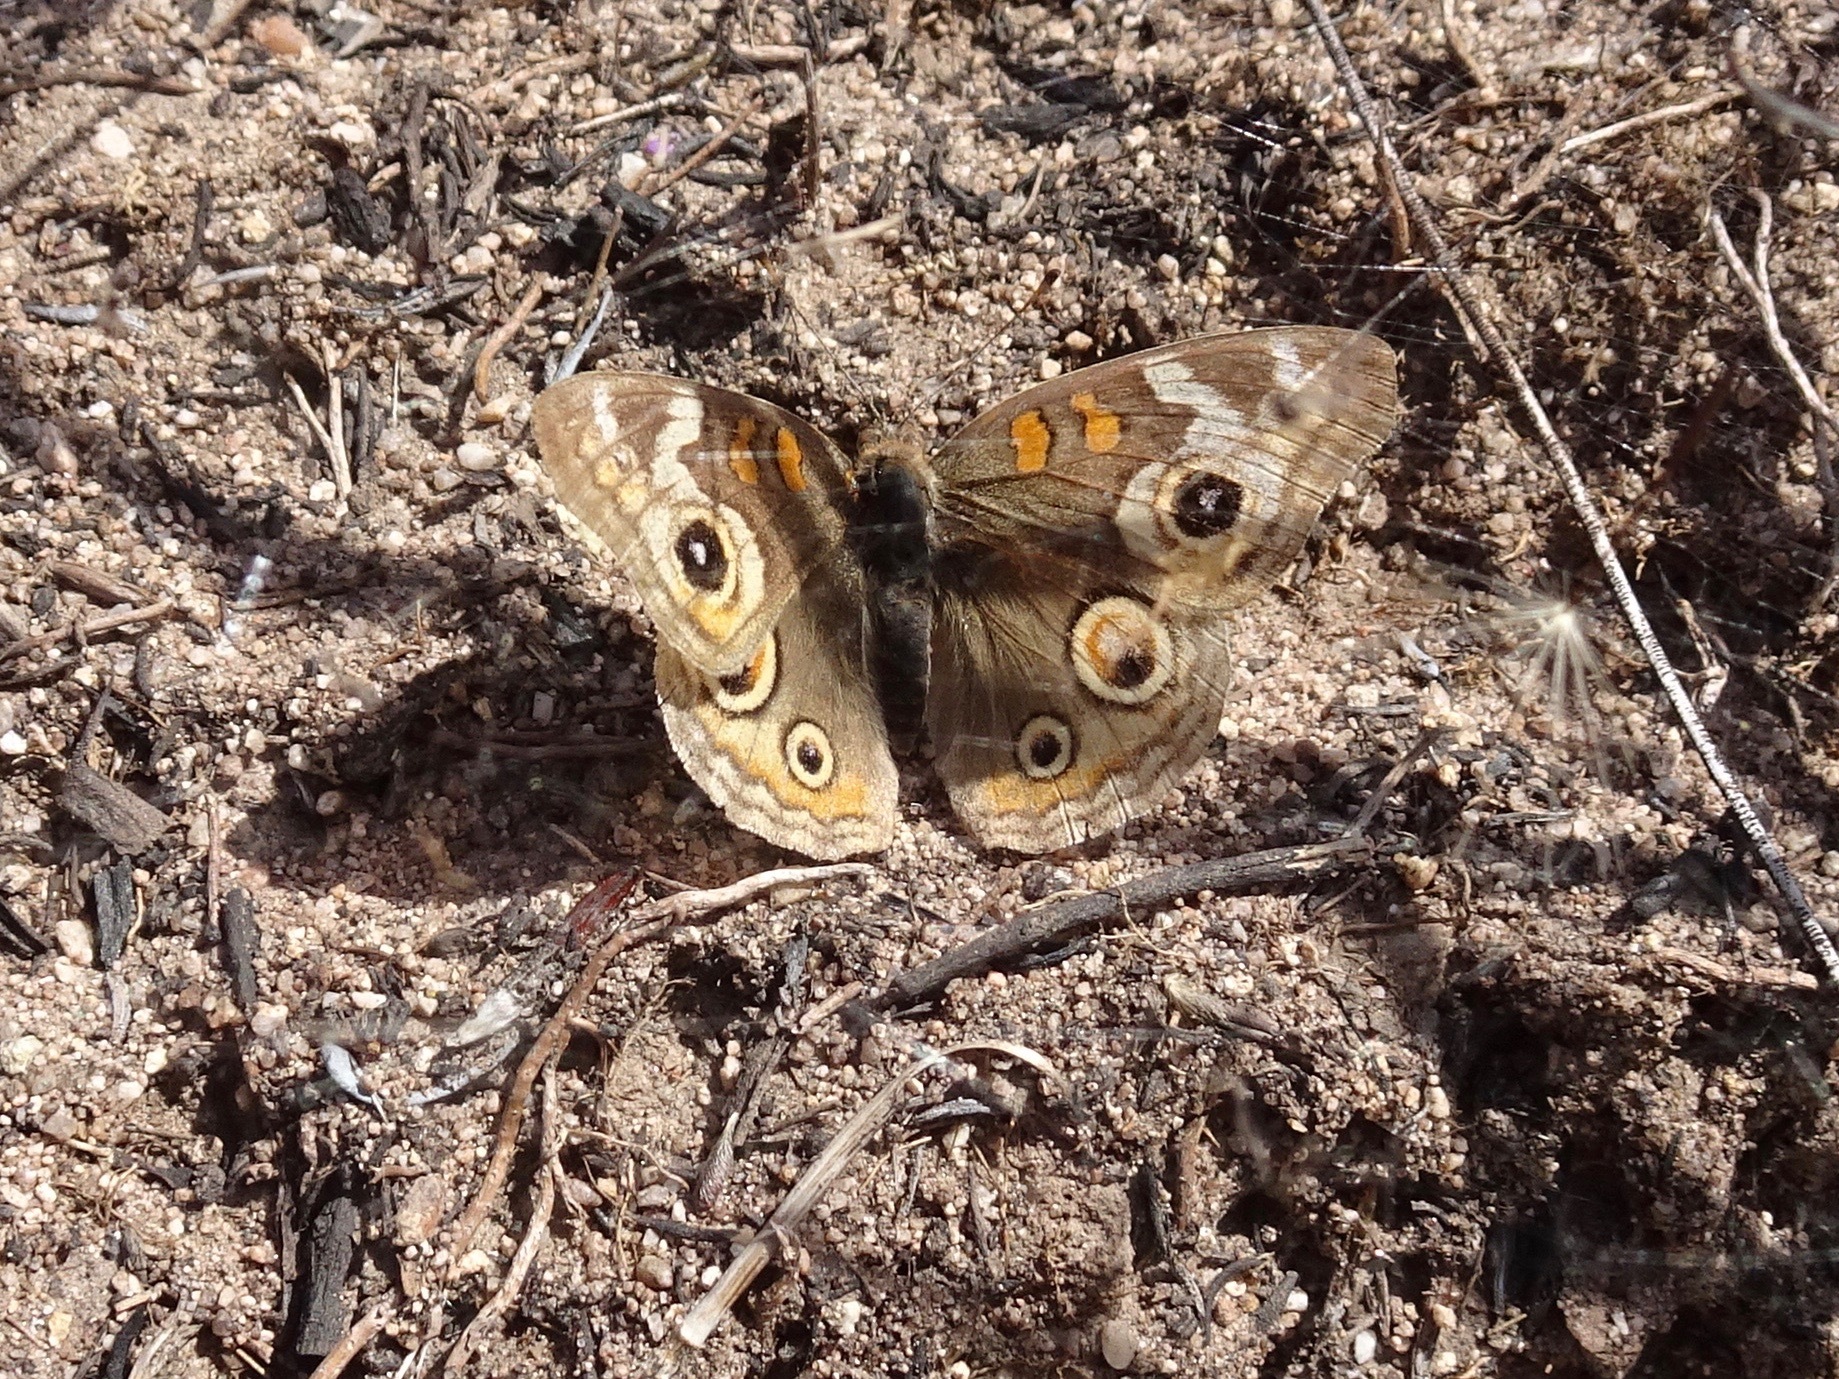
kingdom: Animalia
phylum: Arthropoda
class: Insecta
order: Lepidoptera
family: Nymphalidae
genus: Junonia
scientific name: Junonia grisea
